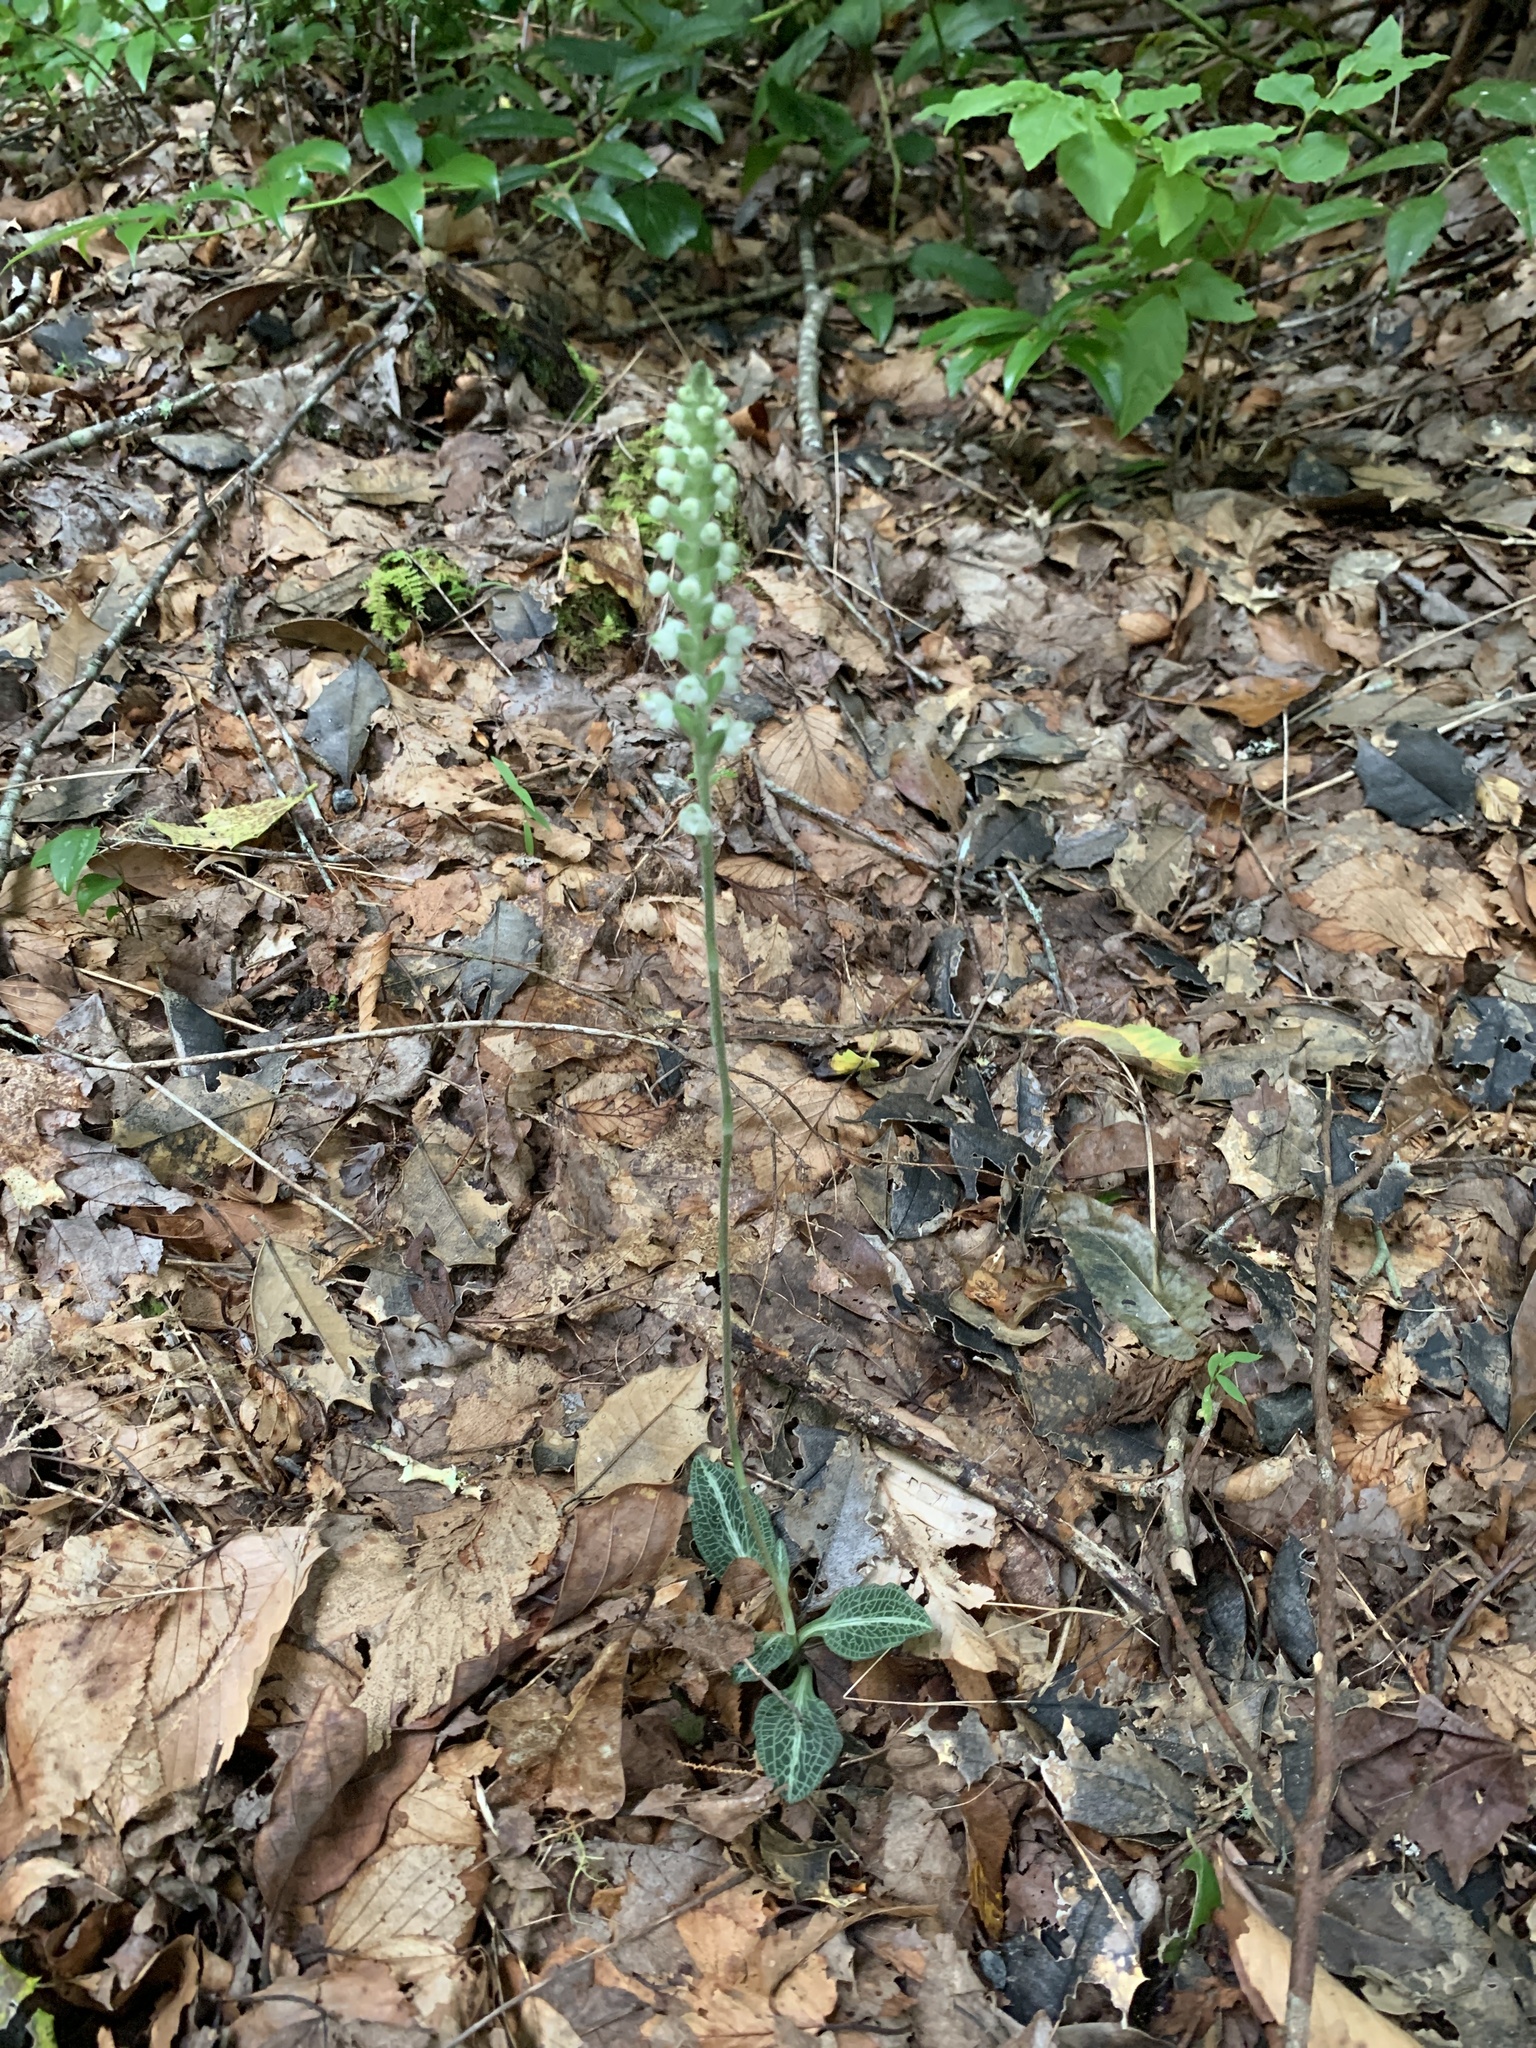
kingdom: Plantae
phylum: Tracheophyta
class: Liliopsida
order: Asparagales
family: Orchidaceae
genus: Goodyera
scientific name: Goodyera pubescens
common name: Downy rattlesnake-plantain
